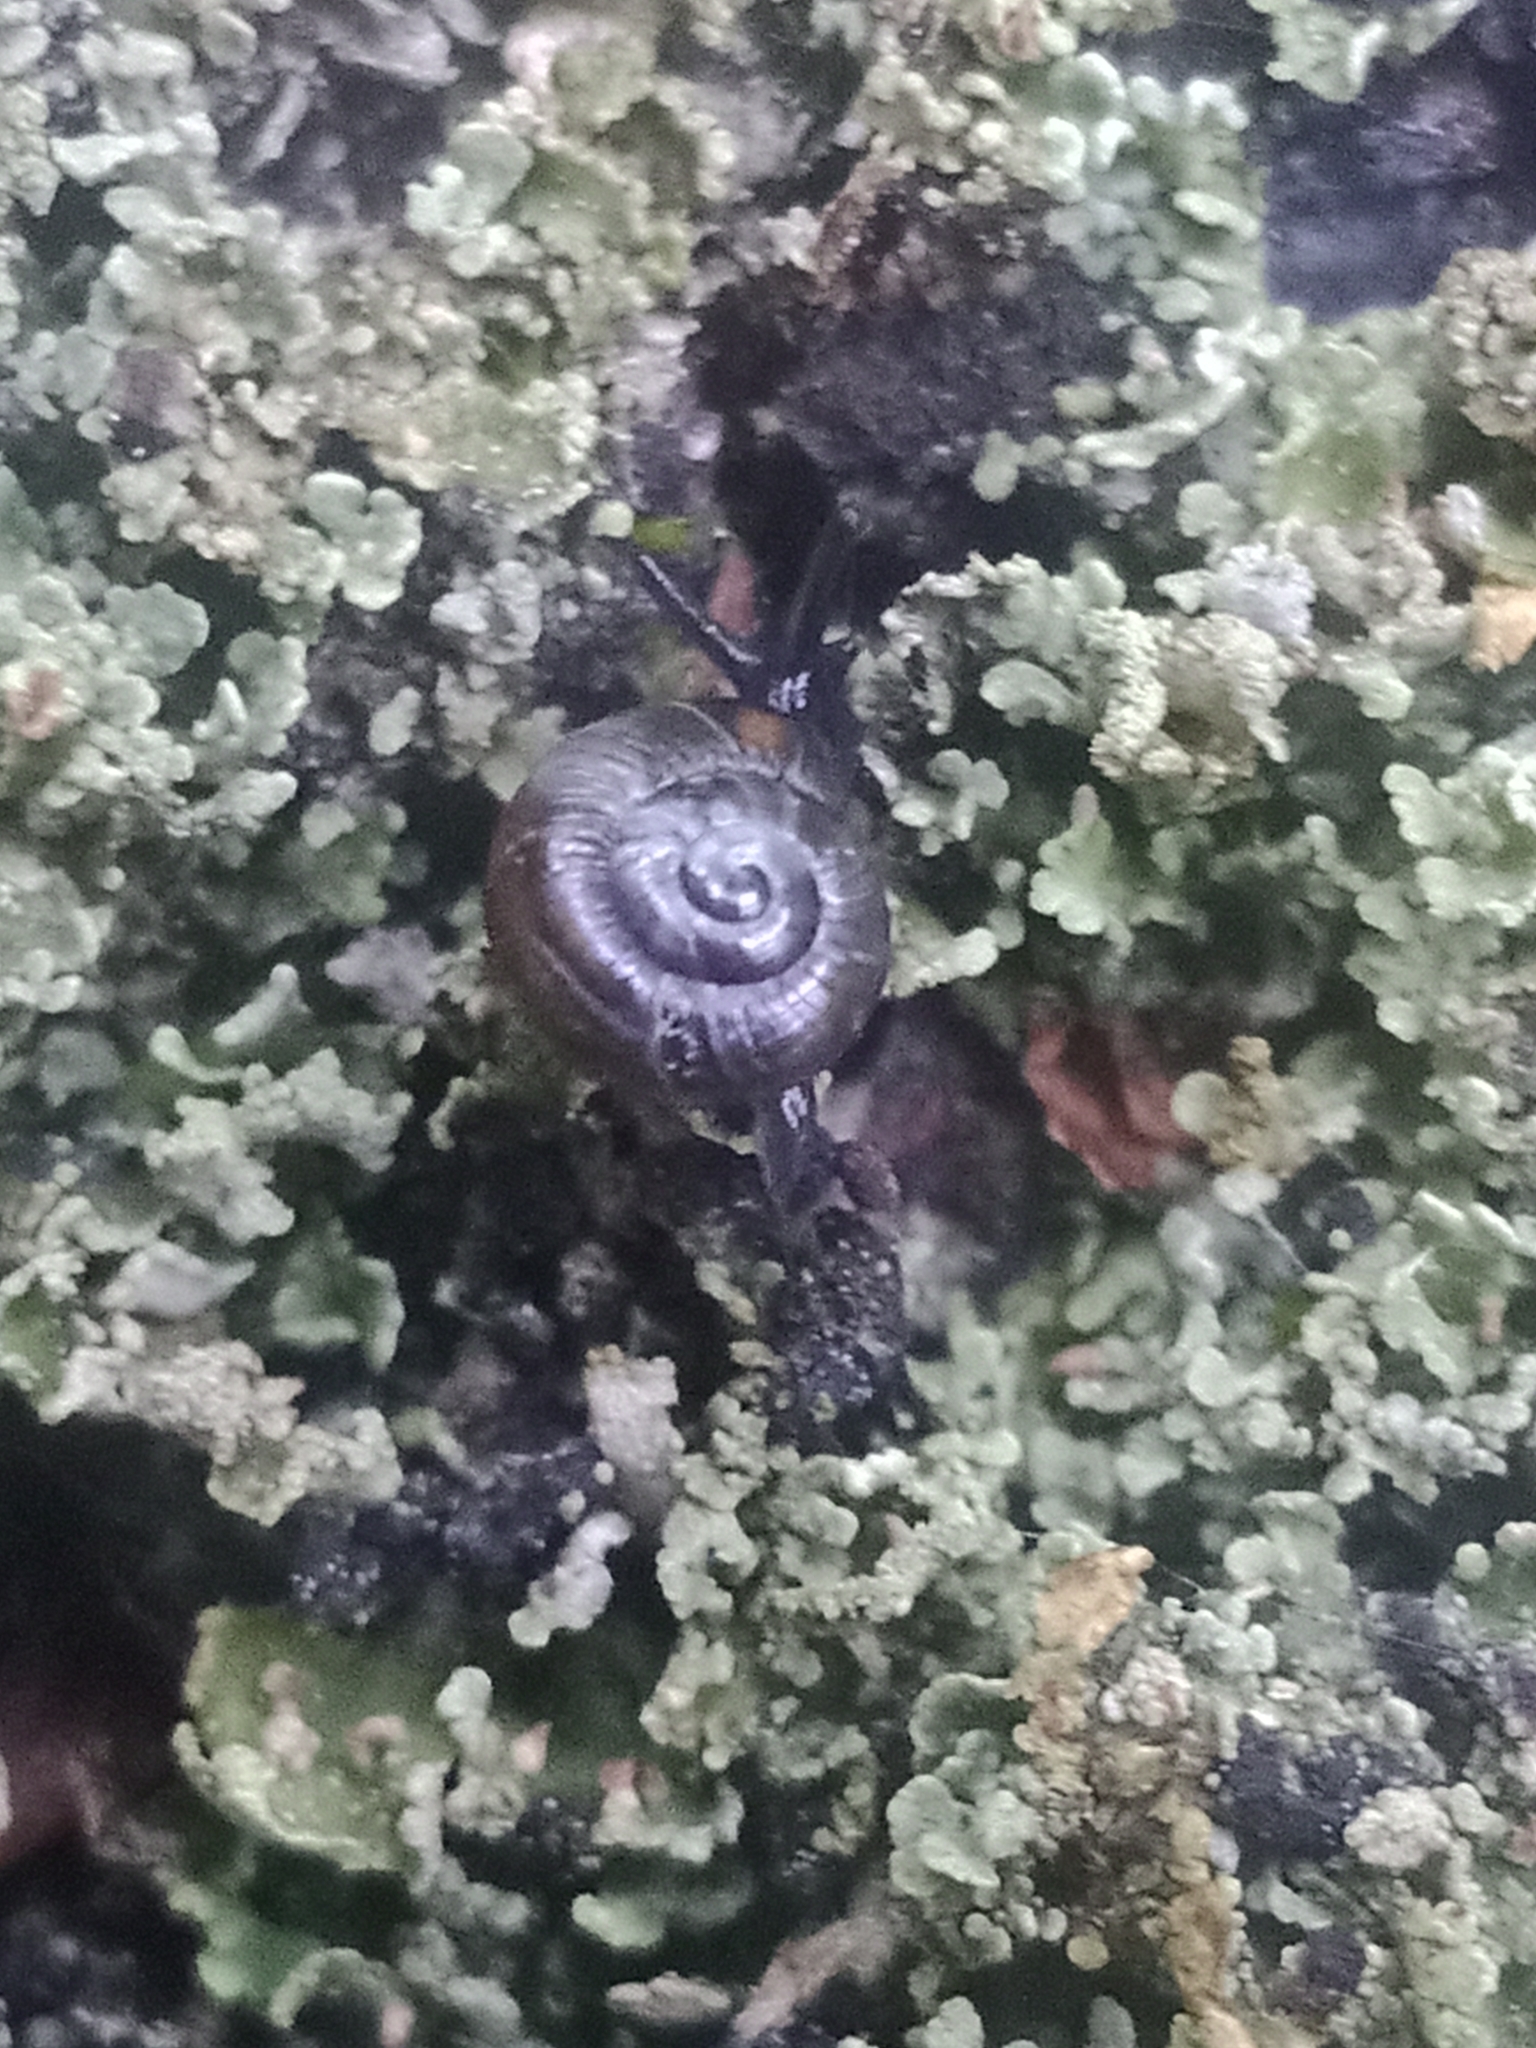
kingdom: Animalia
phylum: Mollusca
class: Gastropoda
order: Stylommatophora
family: Gastrodontidae
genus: Zonitoides
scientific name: Zonitoides nitidus
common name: Shiny glass snail
